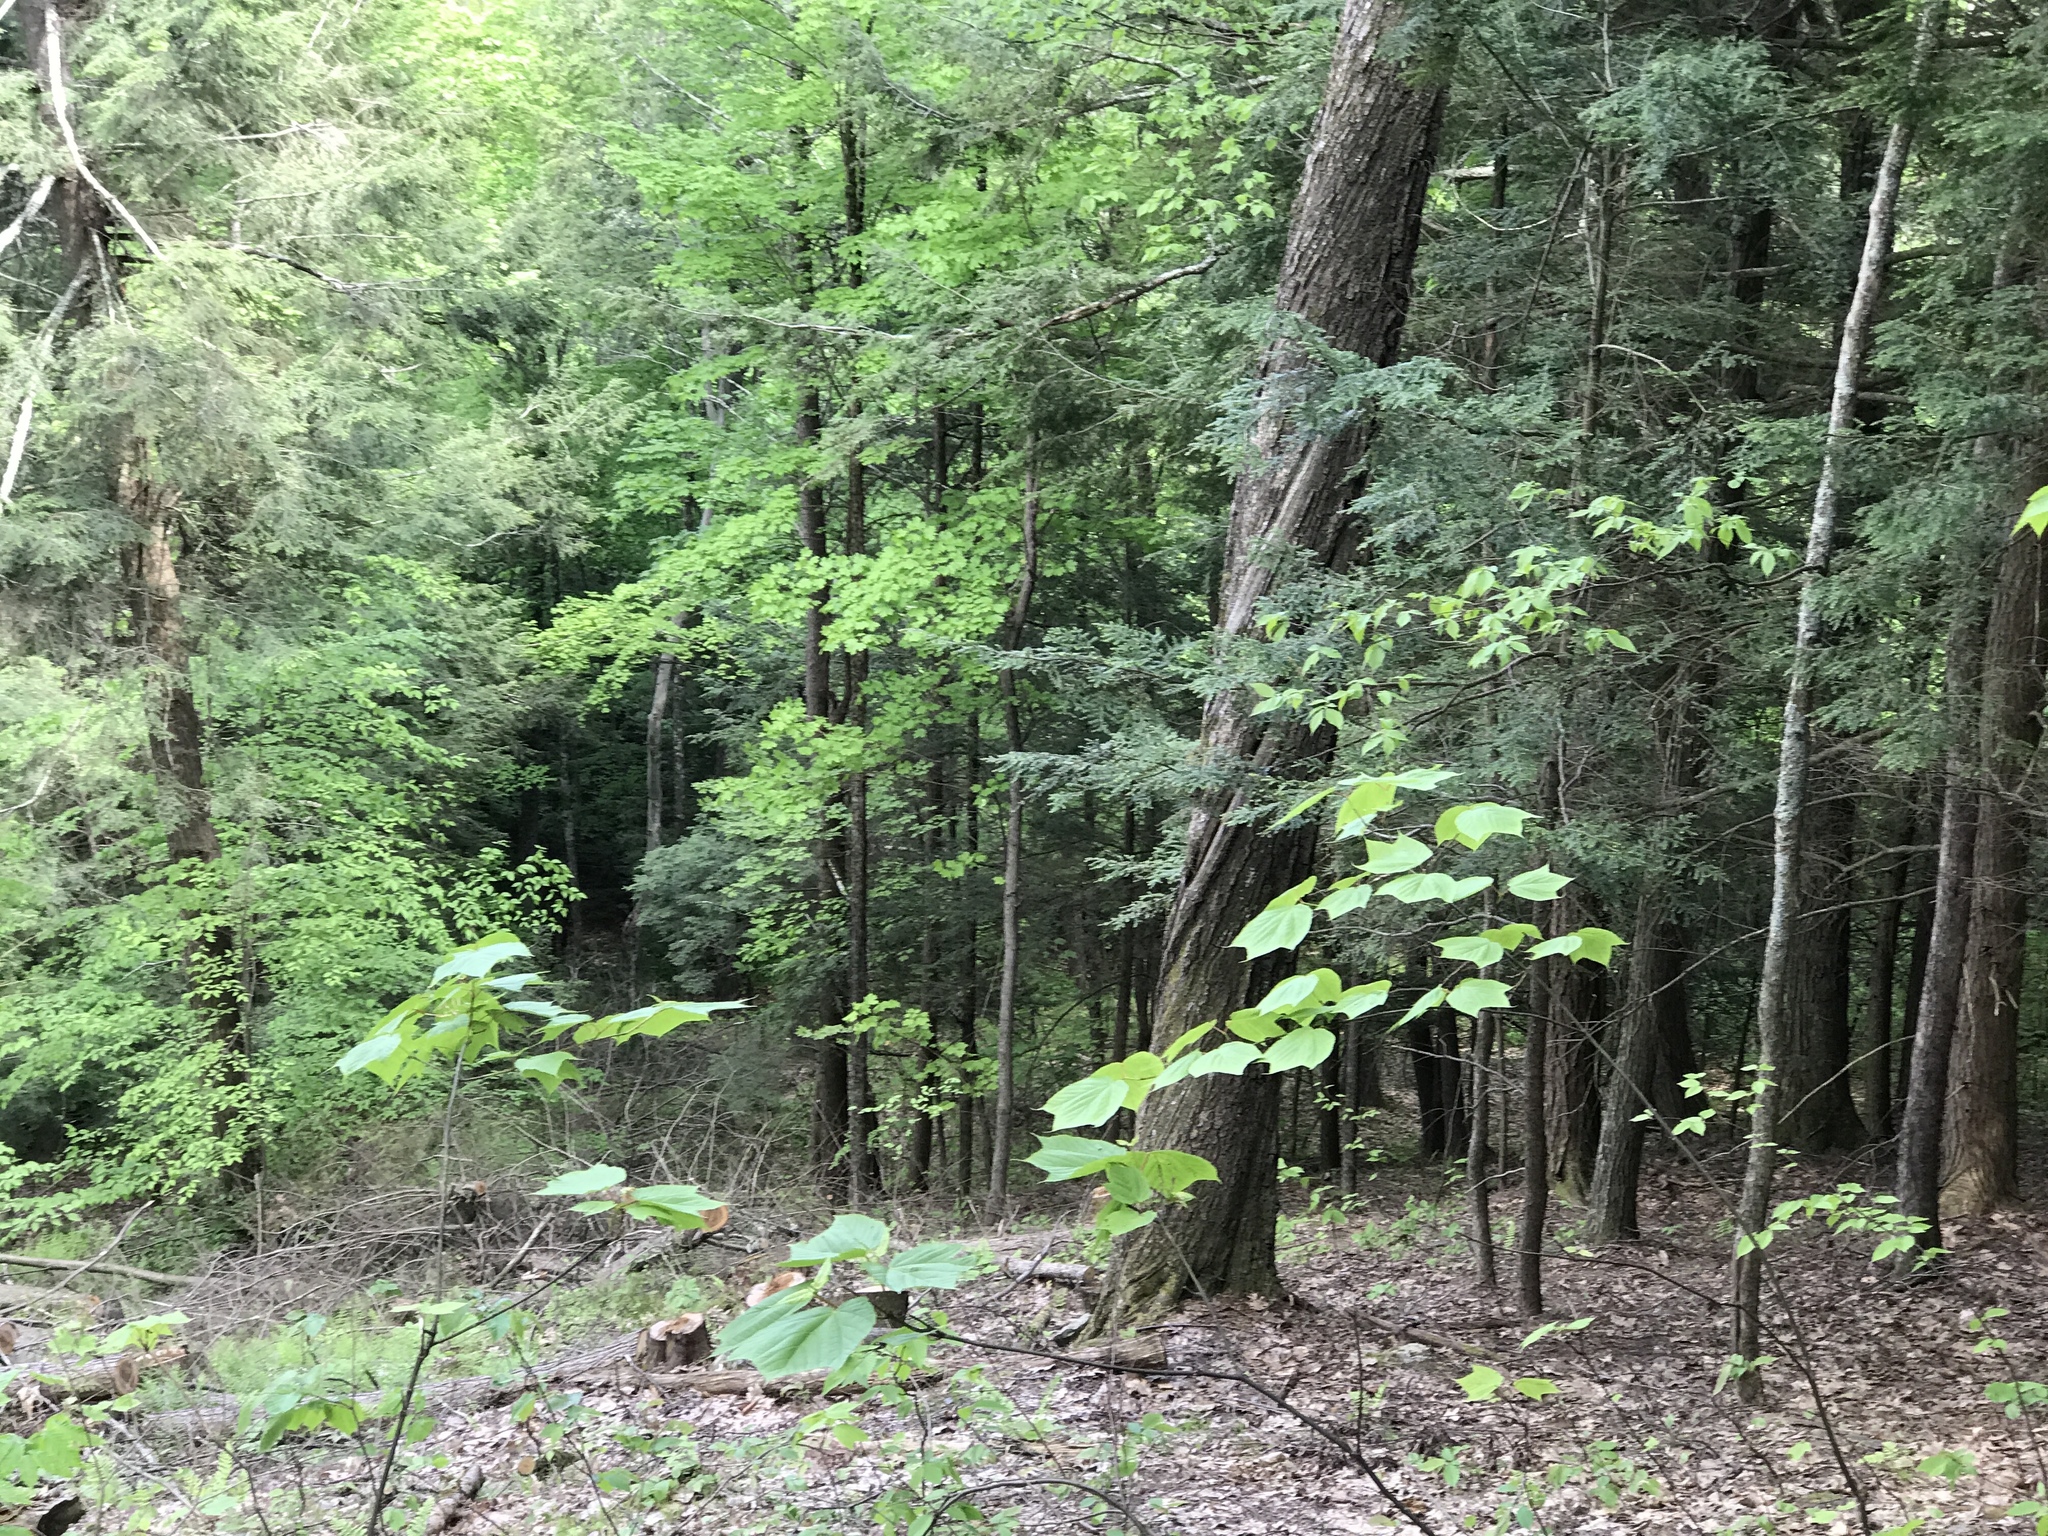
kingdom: Plantae
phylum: Tracheophyta
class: Magnoliopsida
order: Sapindales
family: Sapindaceae
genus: Acer
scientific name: Acer pensylvanicum
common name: Moosewood
